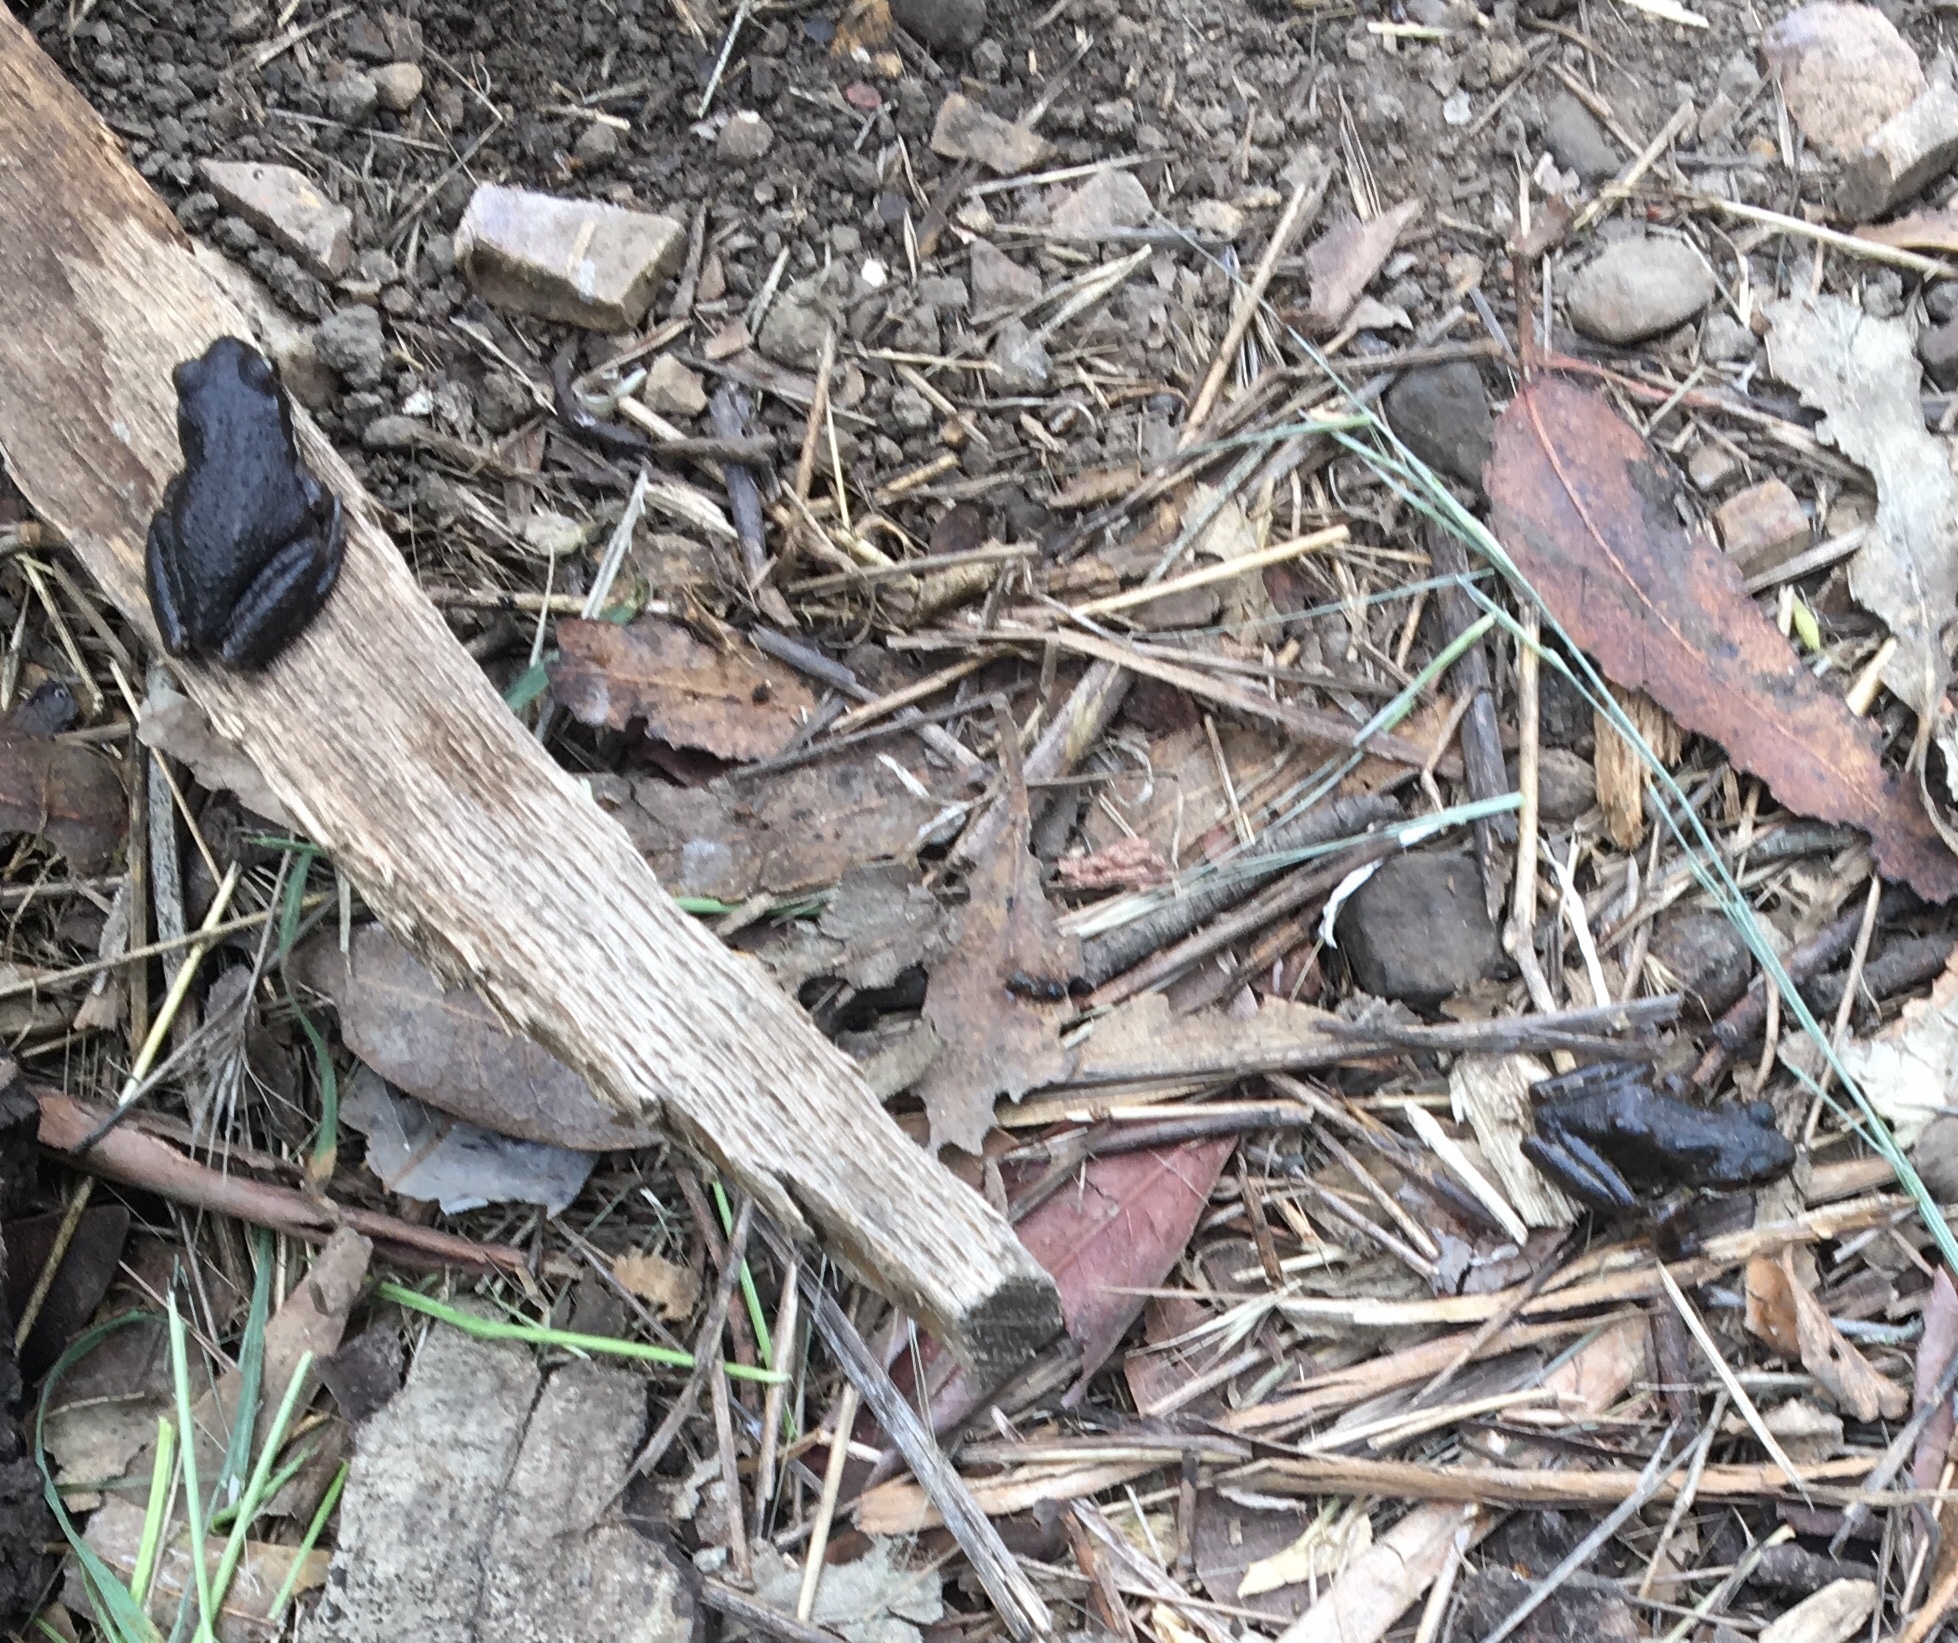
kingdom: Animalia
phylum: Chordata
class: Amphibia
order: Anura
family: Hylidae
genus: Pseudacris
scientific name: Pseudacris regilla
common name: Pacific chorus frog
